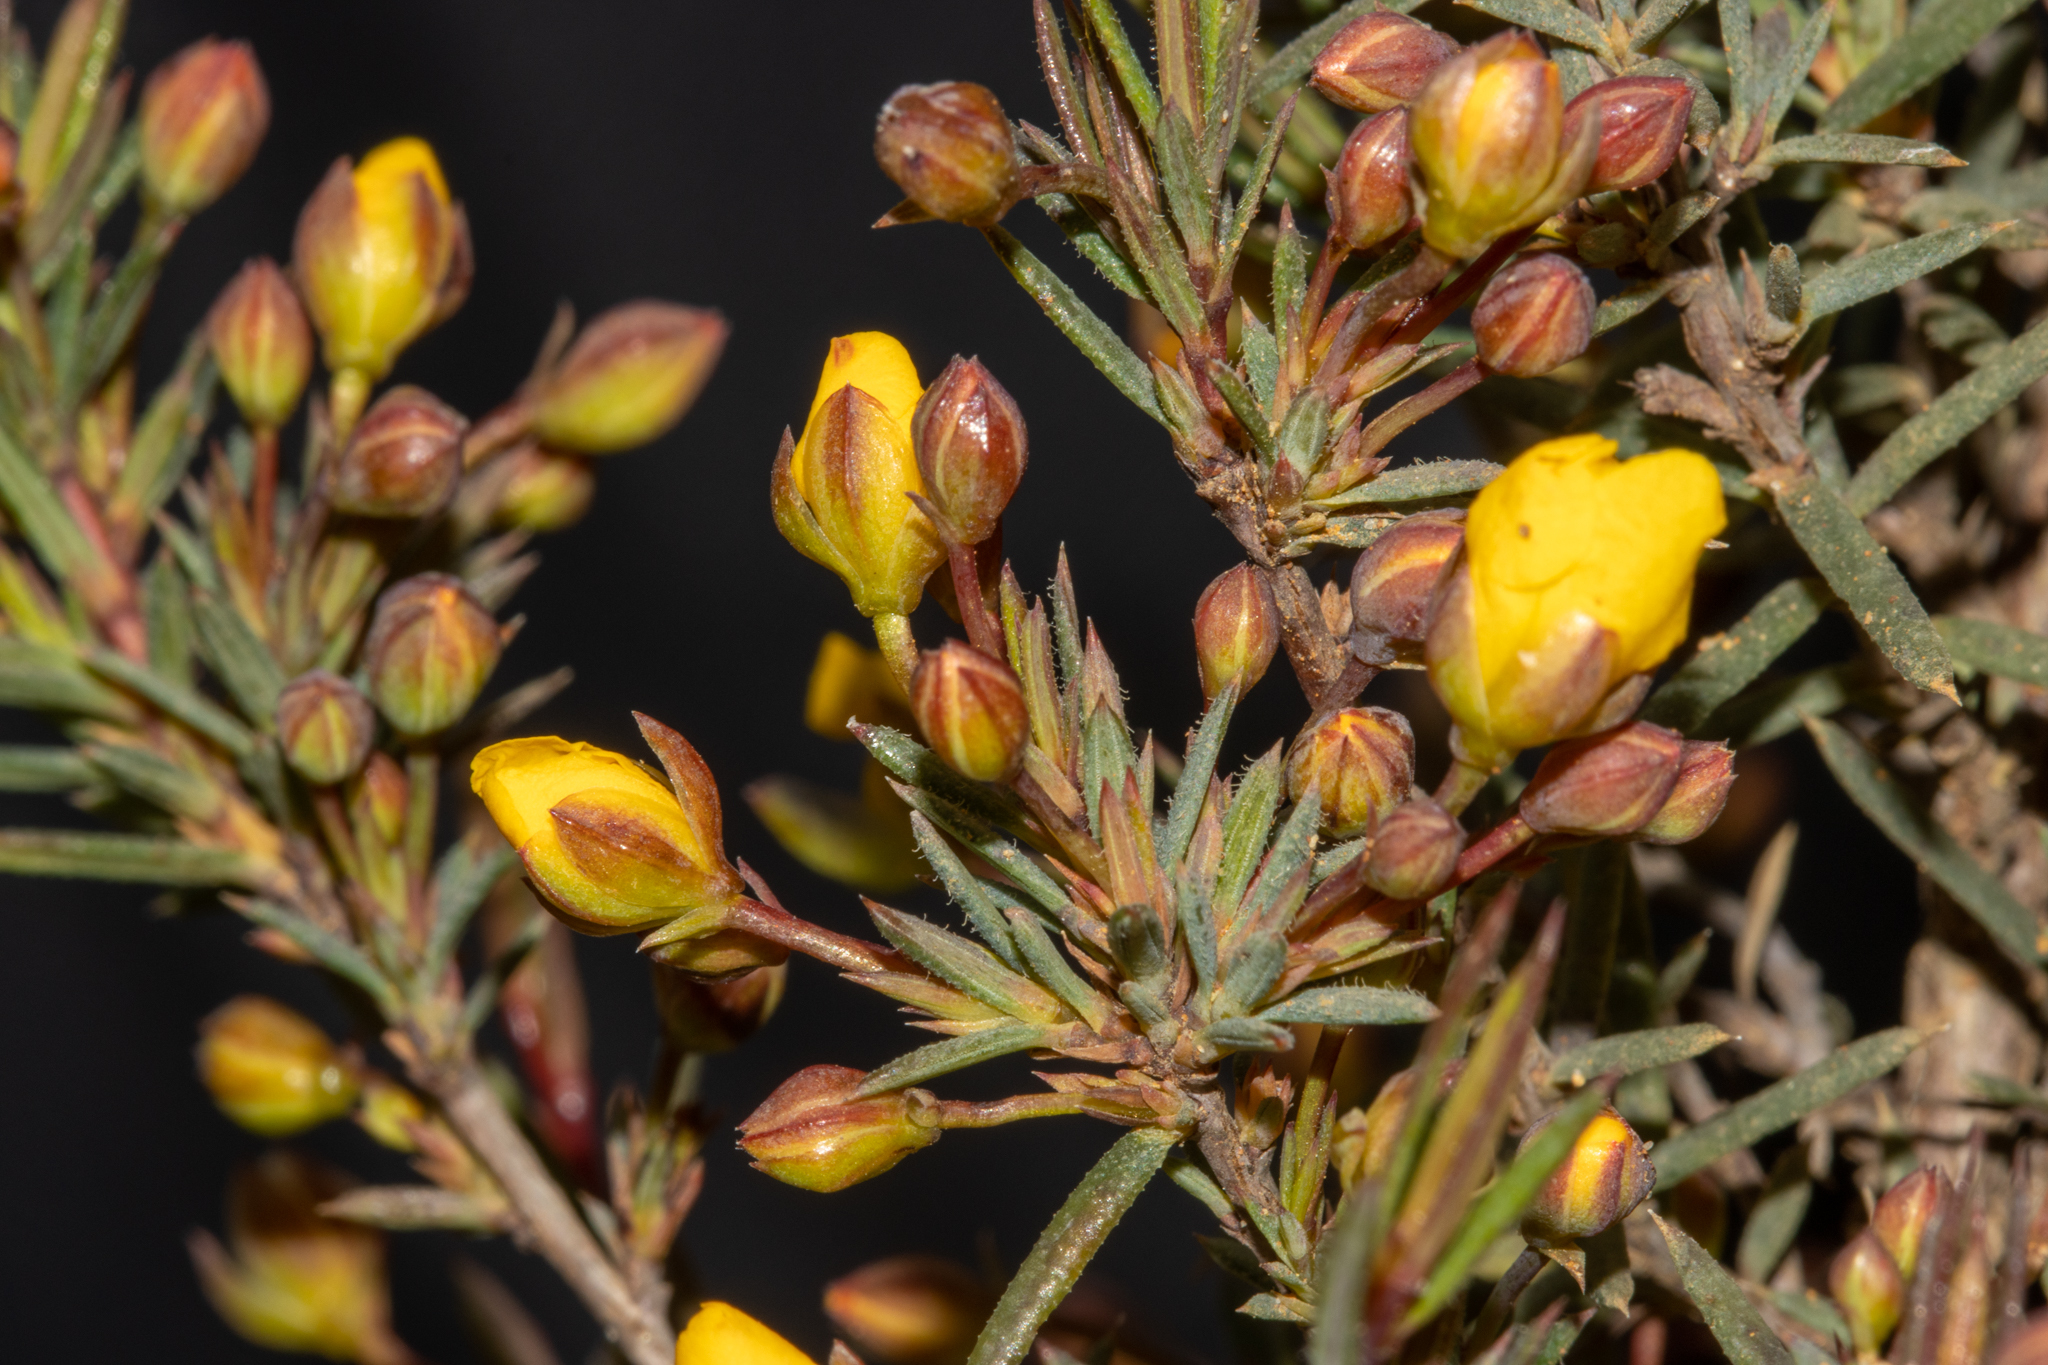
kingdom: Plantae
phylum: Tracheophyta
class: Magnoliopsida
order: Dilleniales
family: Dilleniaceae
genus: Hibbertia
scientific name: Hibbertia
